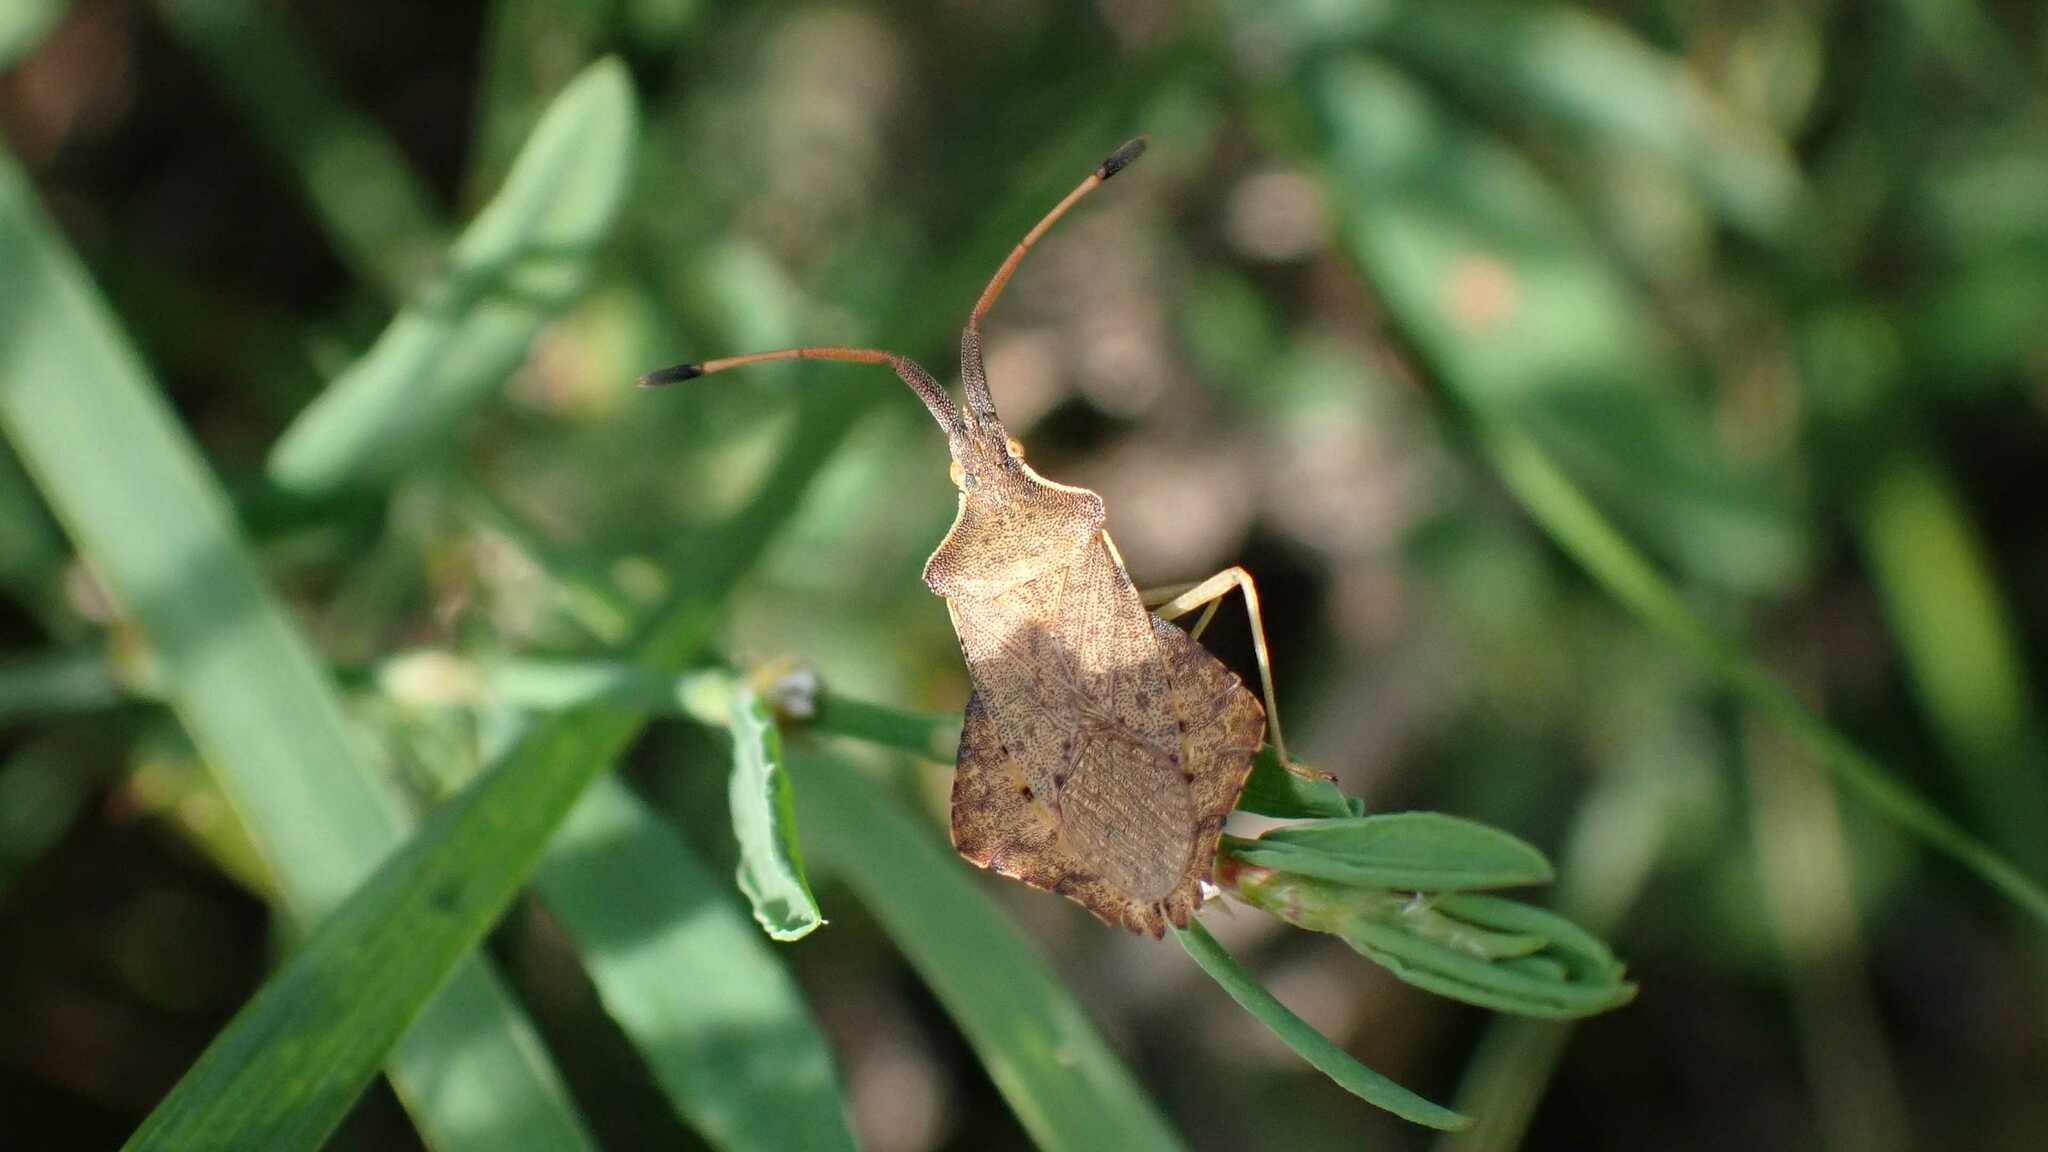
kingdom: Animalia
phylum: Arthropoda
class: Insecta
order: Hemiptera
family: Coreidae
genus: Syromastus
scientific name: Syromastus rhombeus
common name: Rhombic leatherbug
